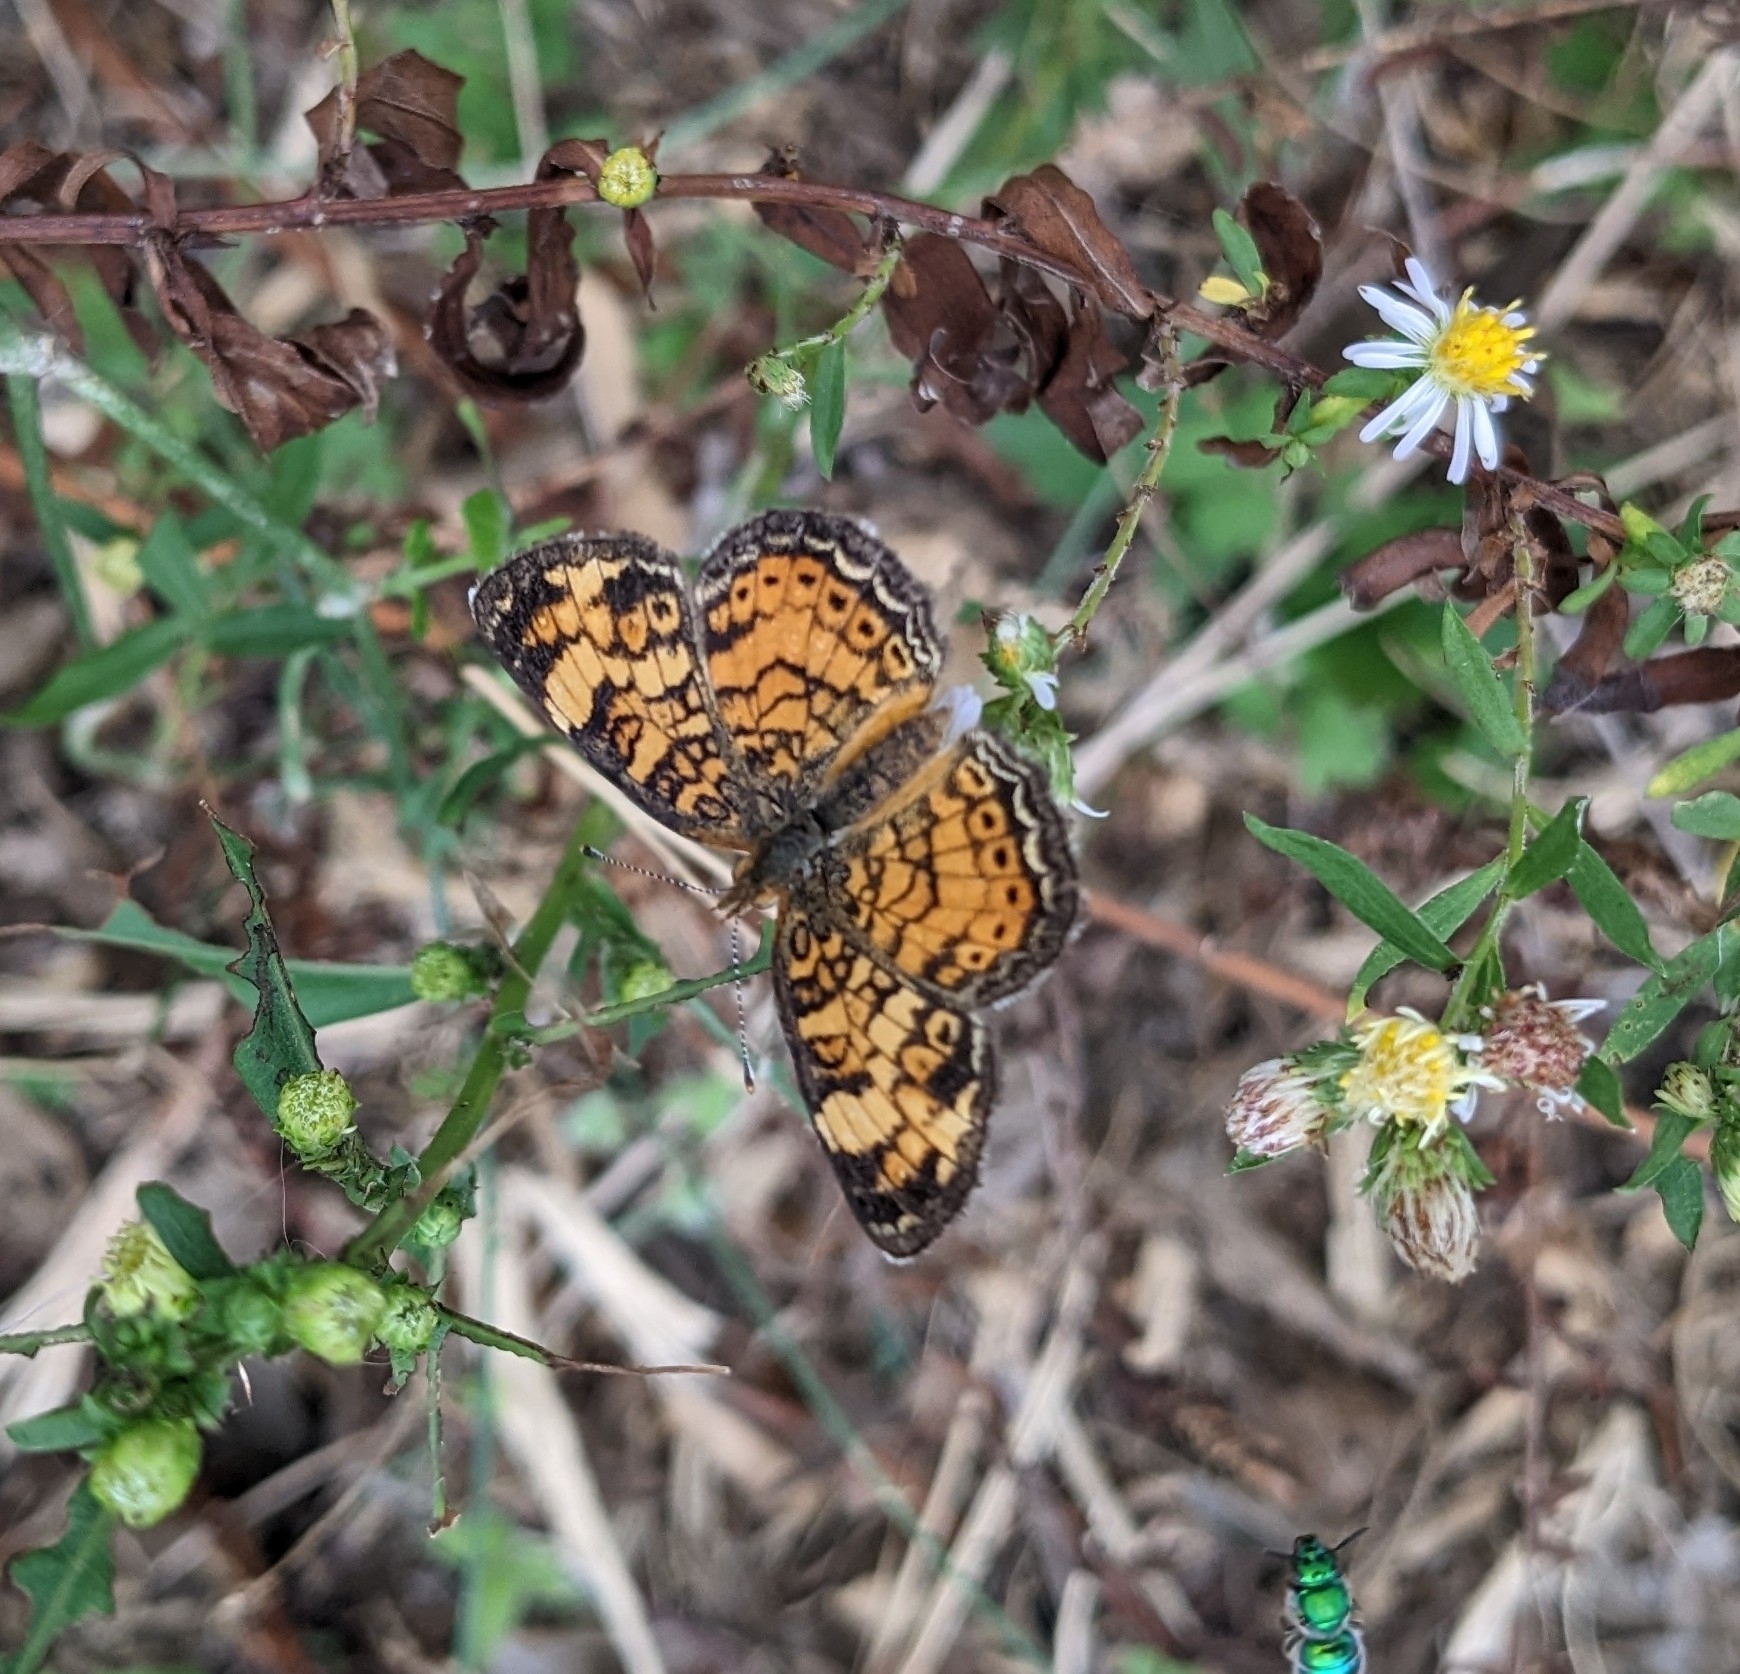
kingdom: Animalia
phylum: Arthropoda
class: Insecta
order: Lepidoptera
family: Nymphalidae
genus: Phyciodes
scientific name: Phyciodes tharos
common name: Pearl crescent
